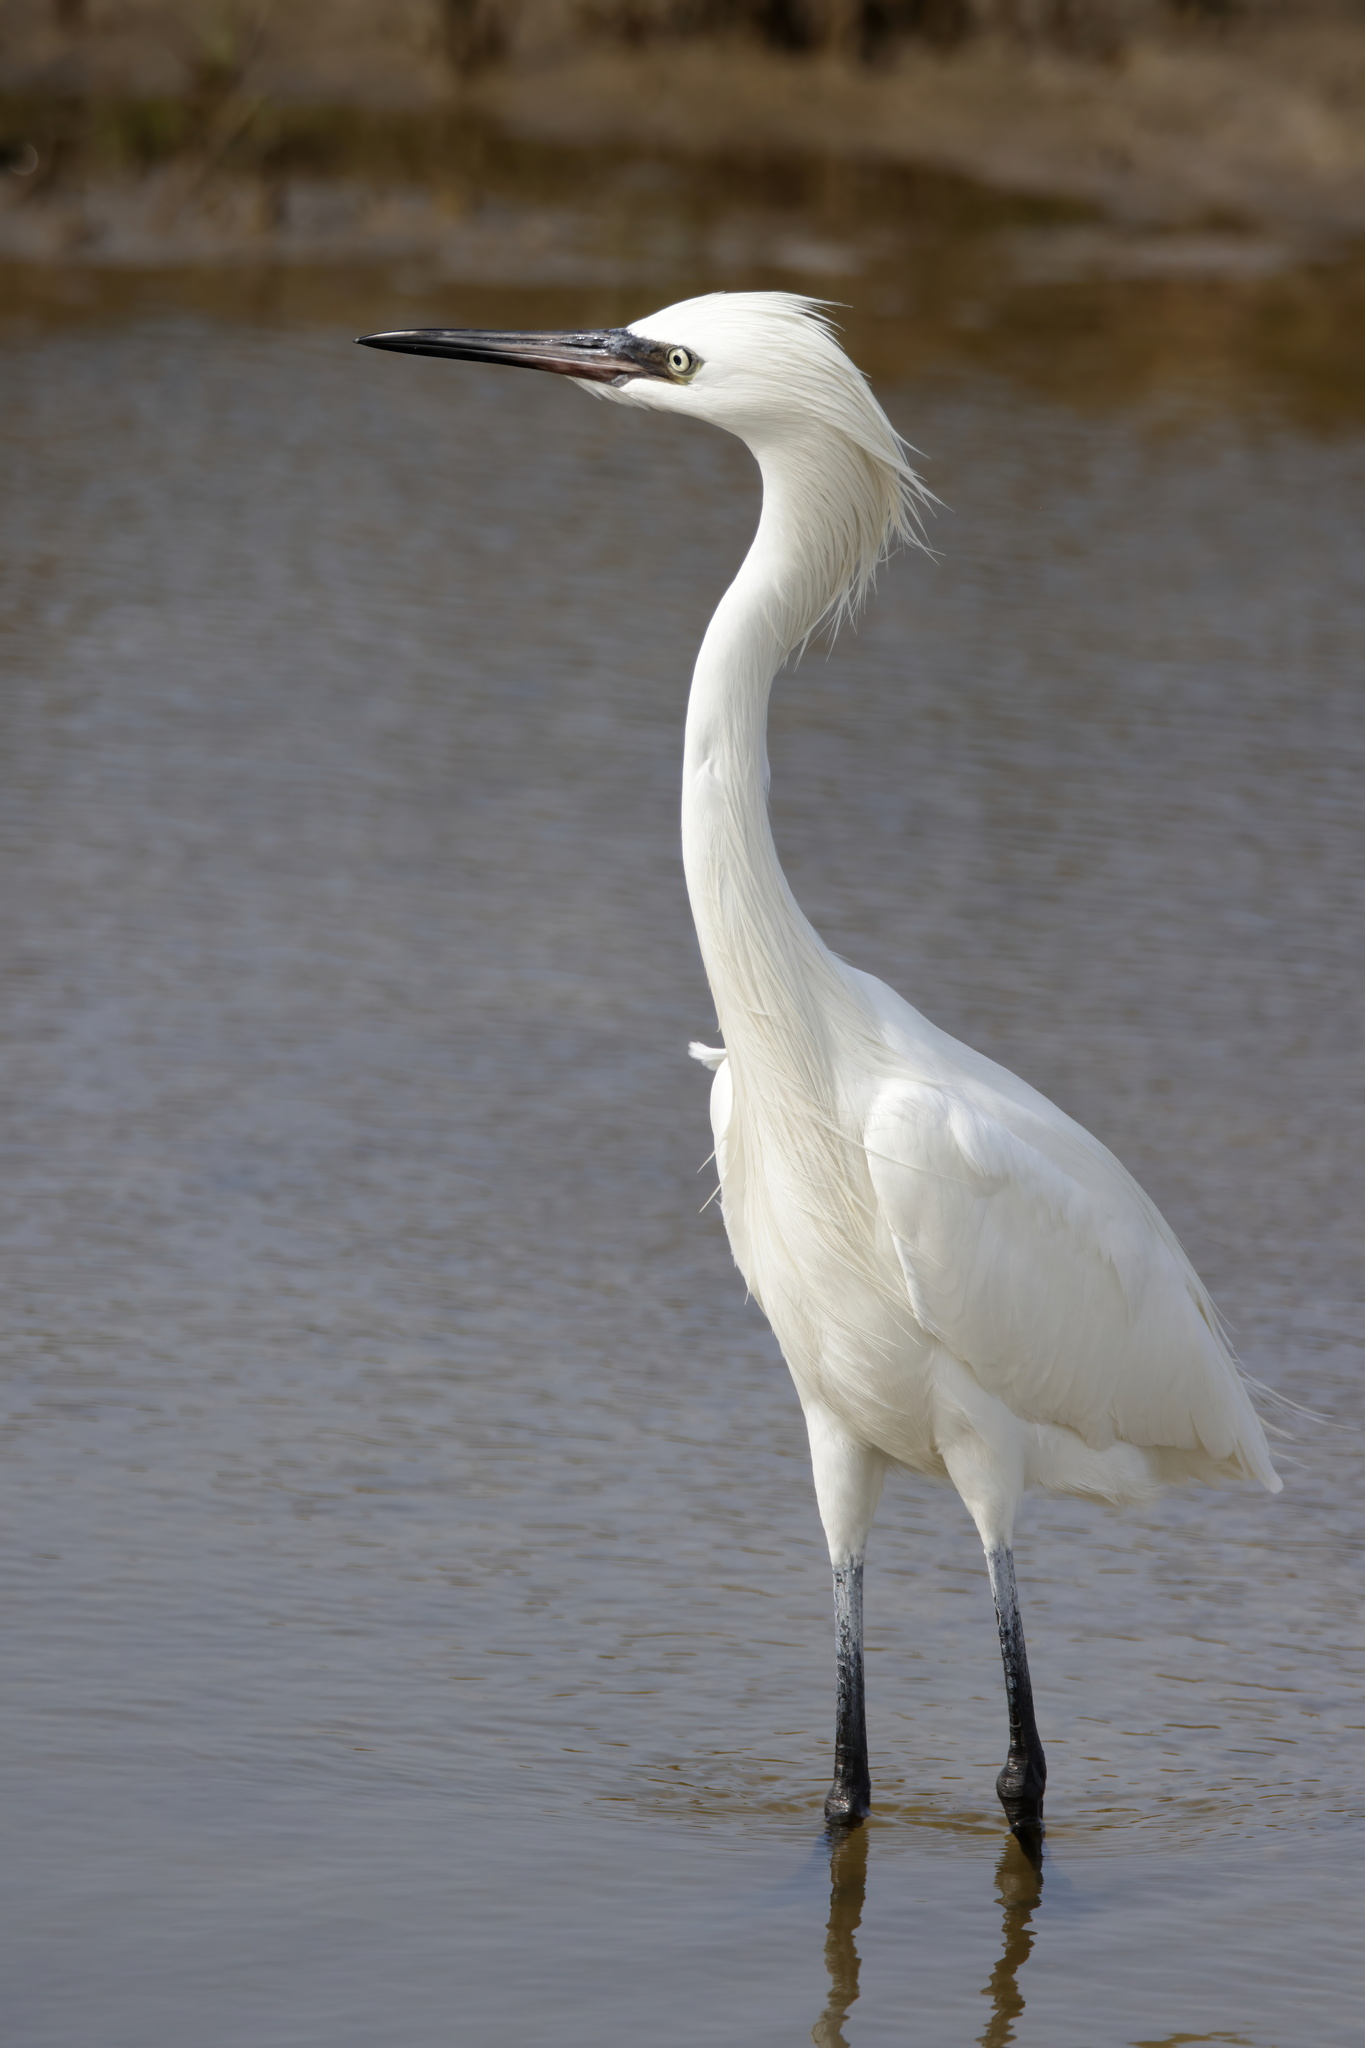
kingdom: Animalia
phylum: Chordata
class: Aves
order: Pelecaniformes
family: Ardeidae
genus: Egretta
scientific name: Egretta rufescens
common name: Reddish egret
